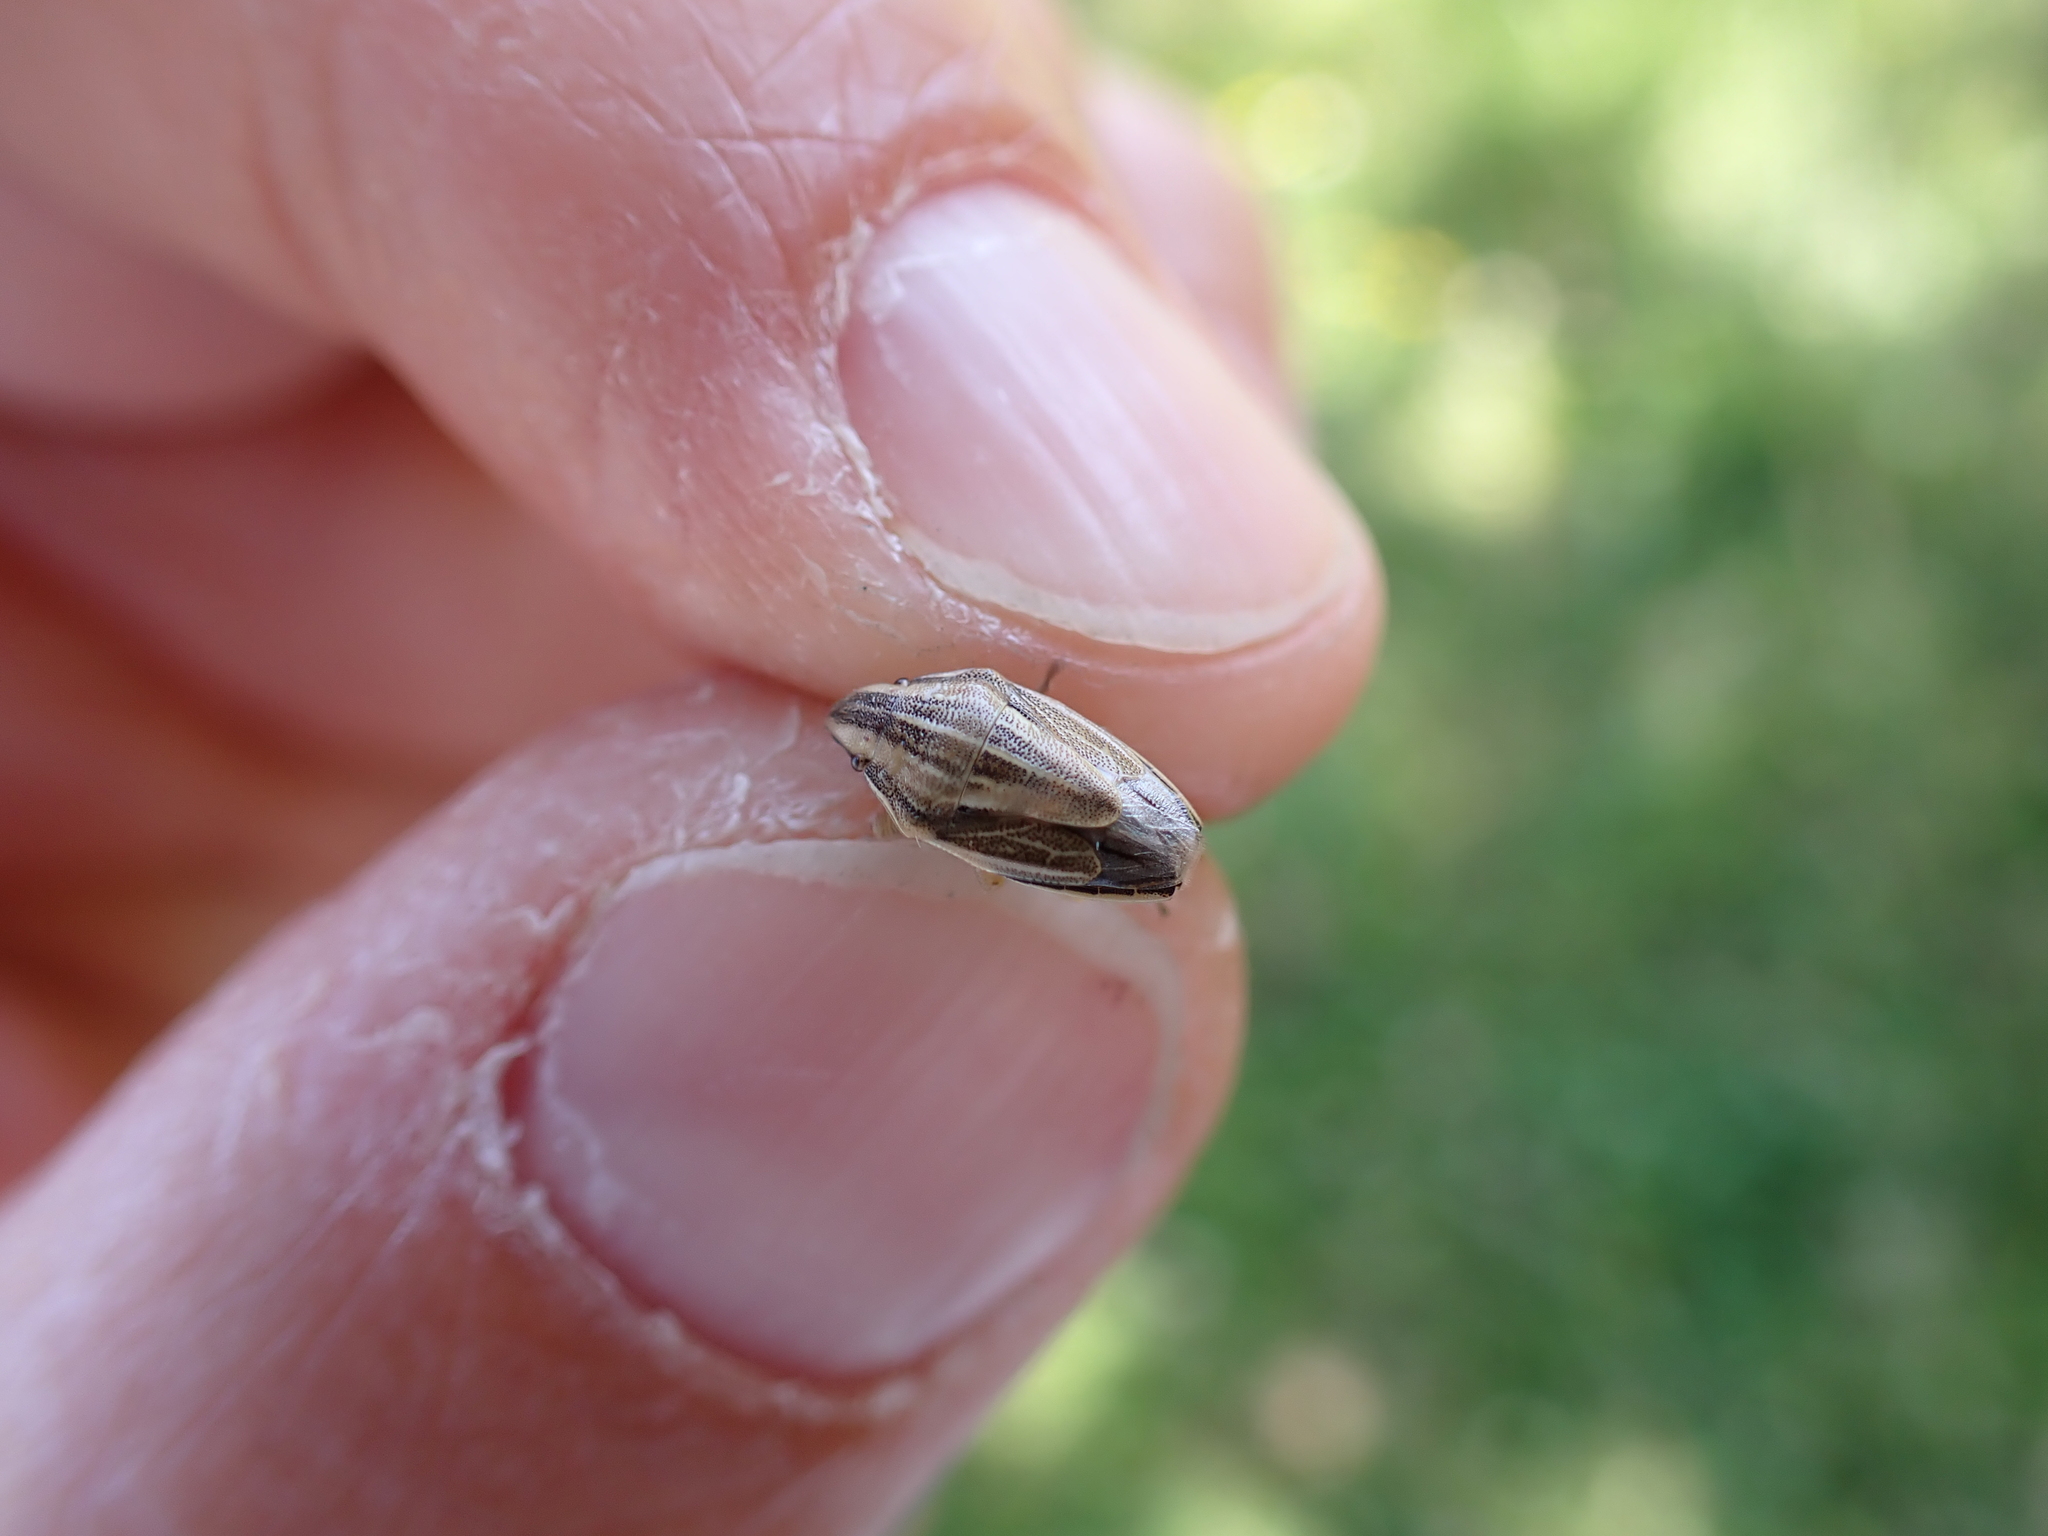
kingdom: Animalia
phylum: Arthropoda
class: Insecta
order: Hemiptera
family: Pentatomidae
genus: Aelia
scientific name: Aelia acuminata
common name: Bishop's mitre
